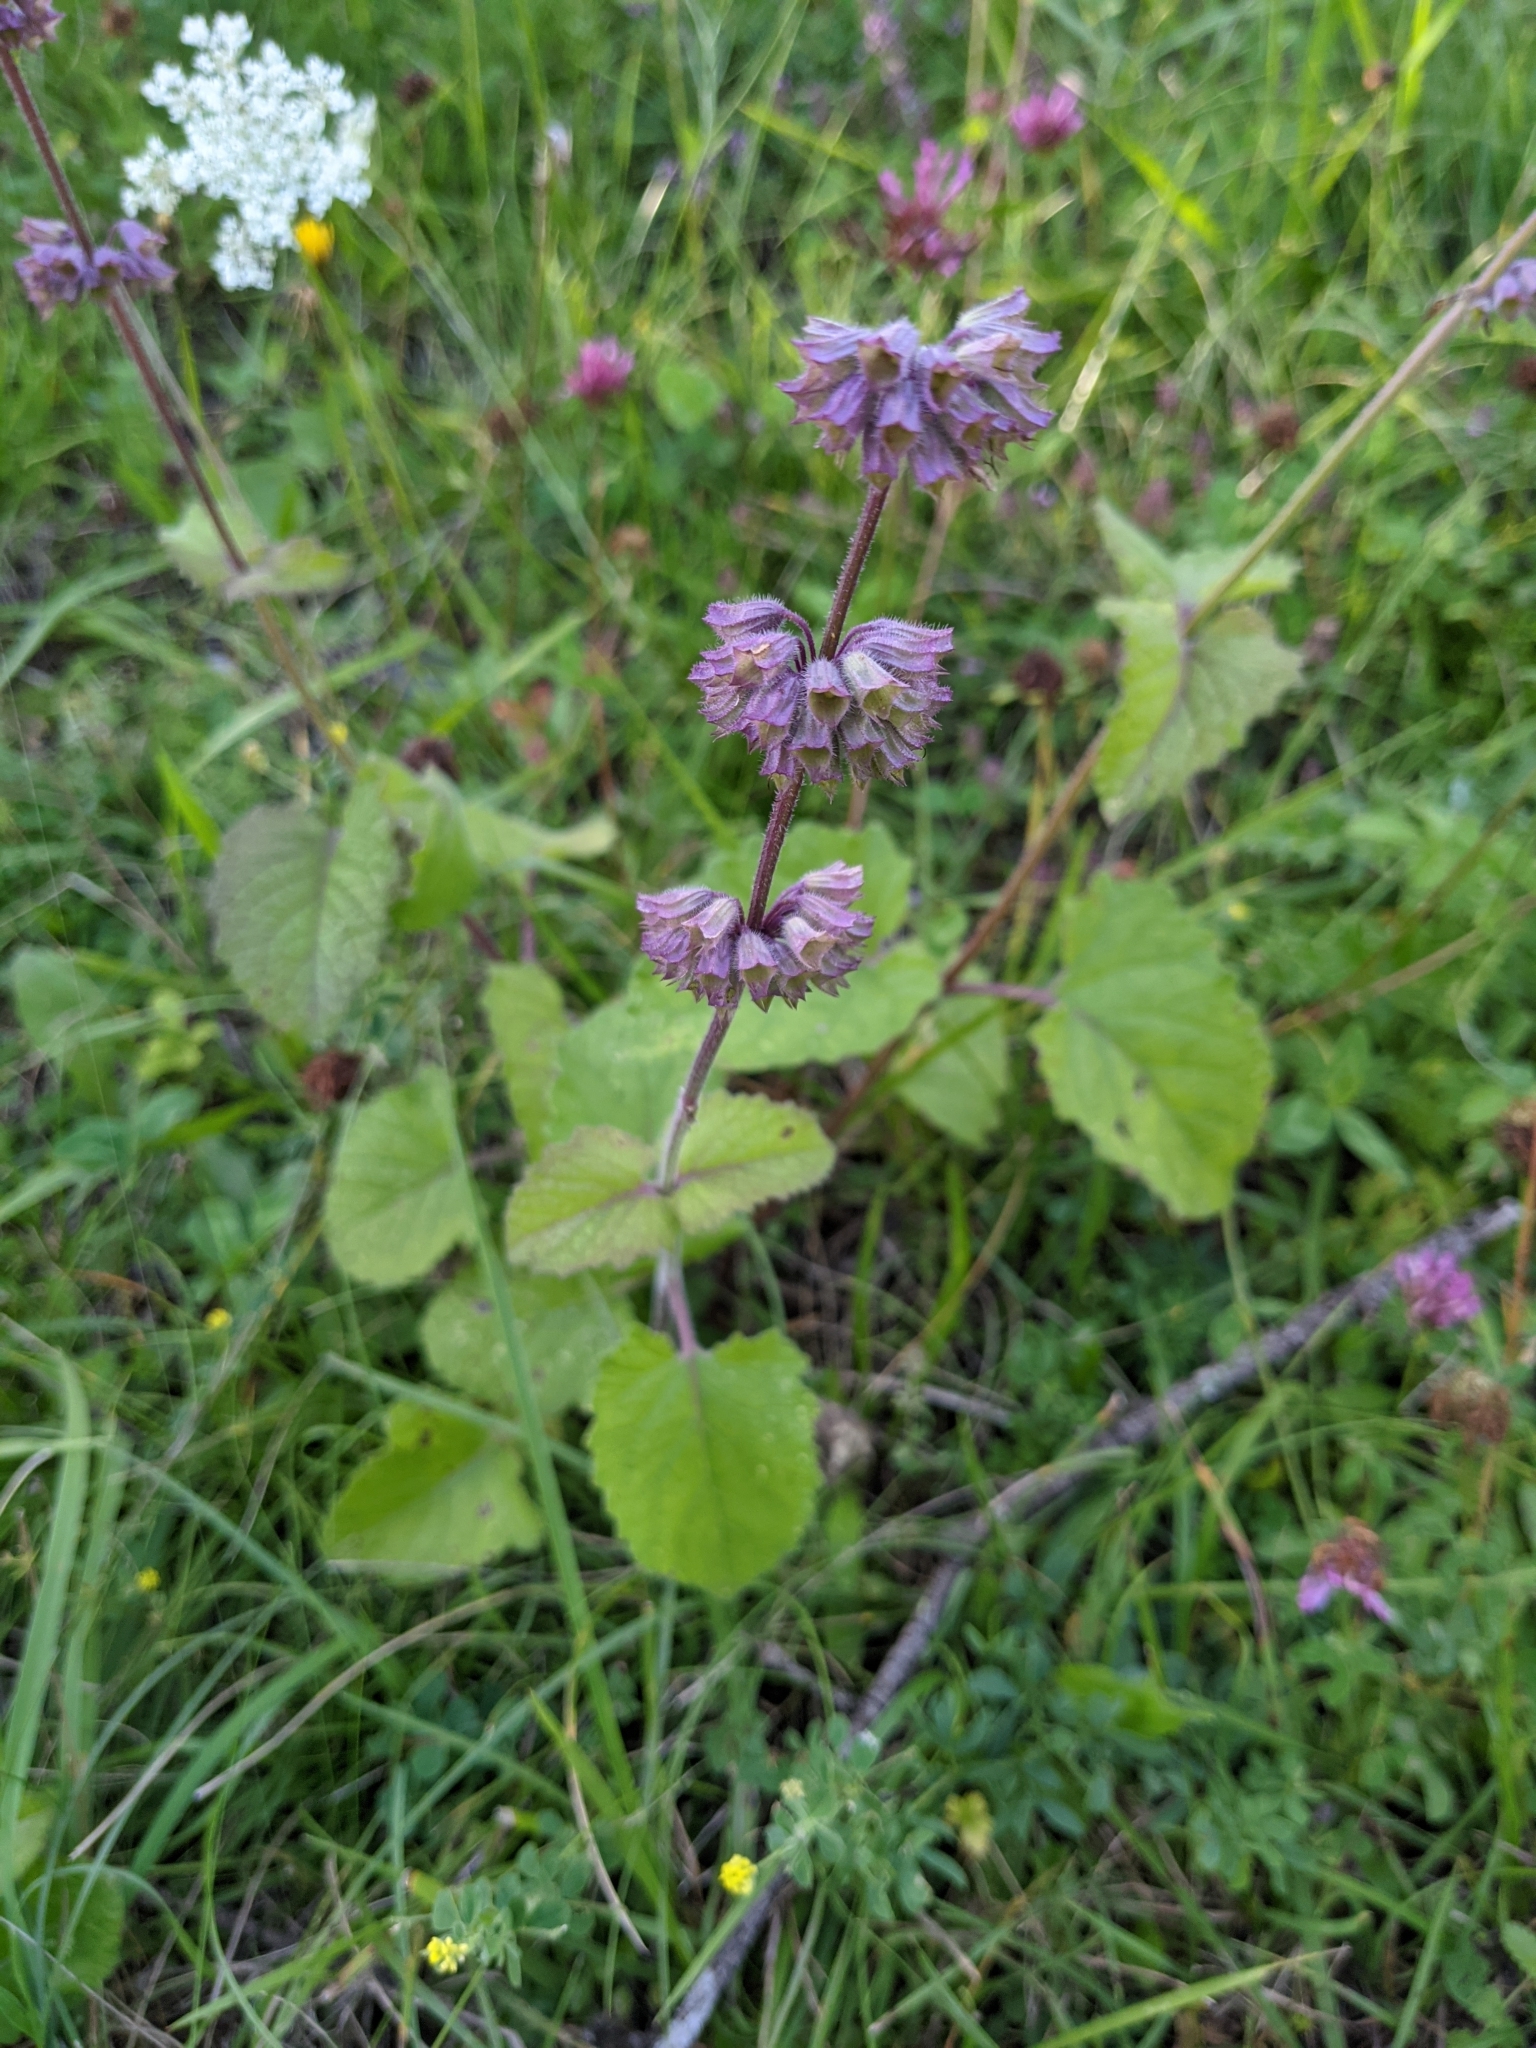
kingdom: Plantae
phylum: Tracheophyta
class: Magnoliopsida
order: Lamiales
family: Lamiaceae
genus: Salvia
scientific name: Salvia verticillata
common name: Whorled clary
